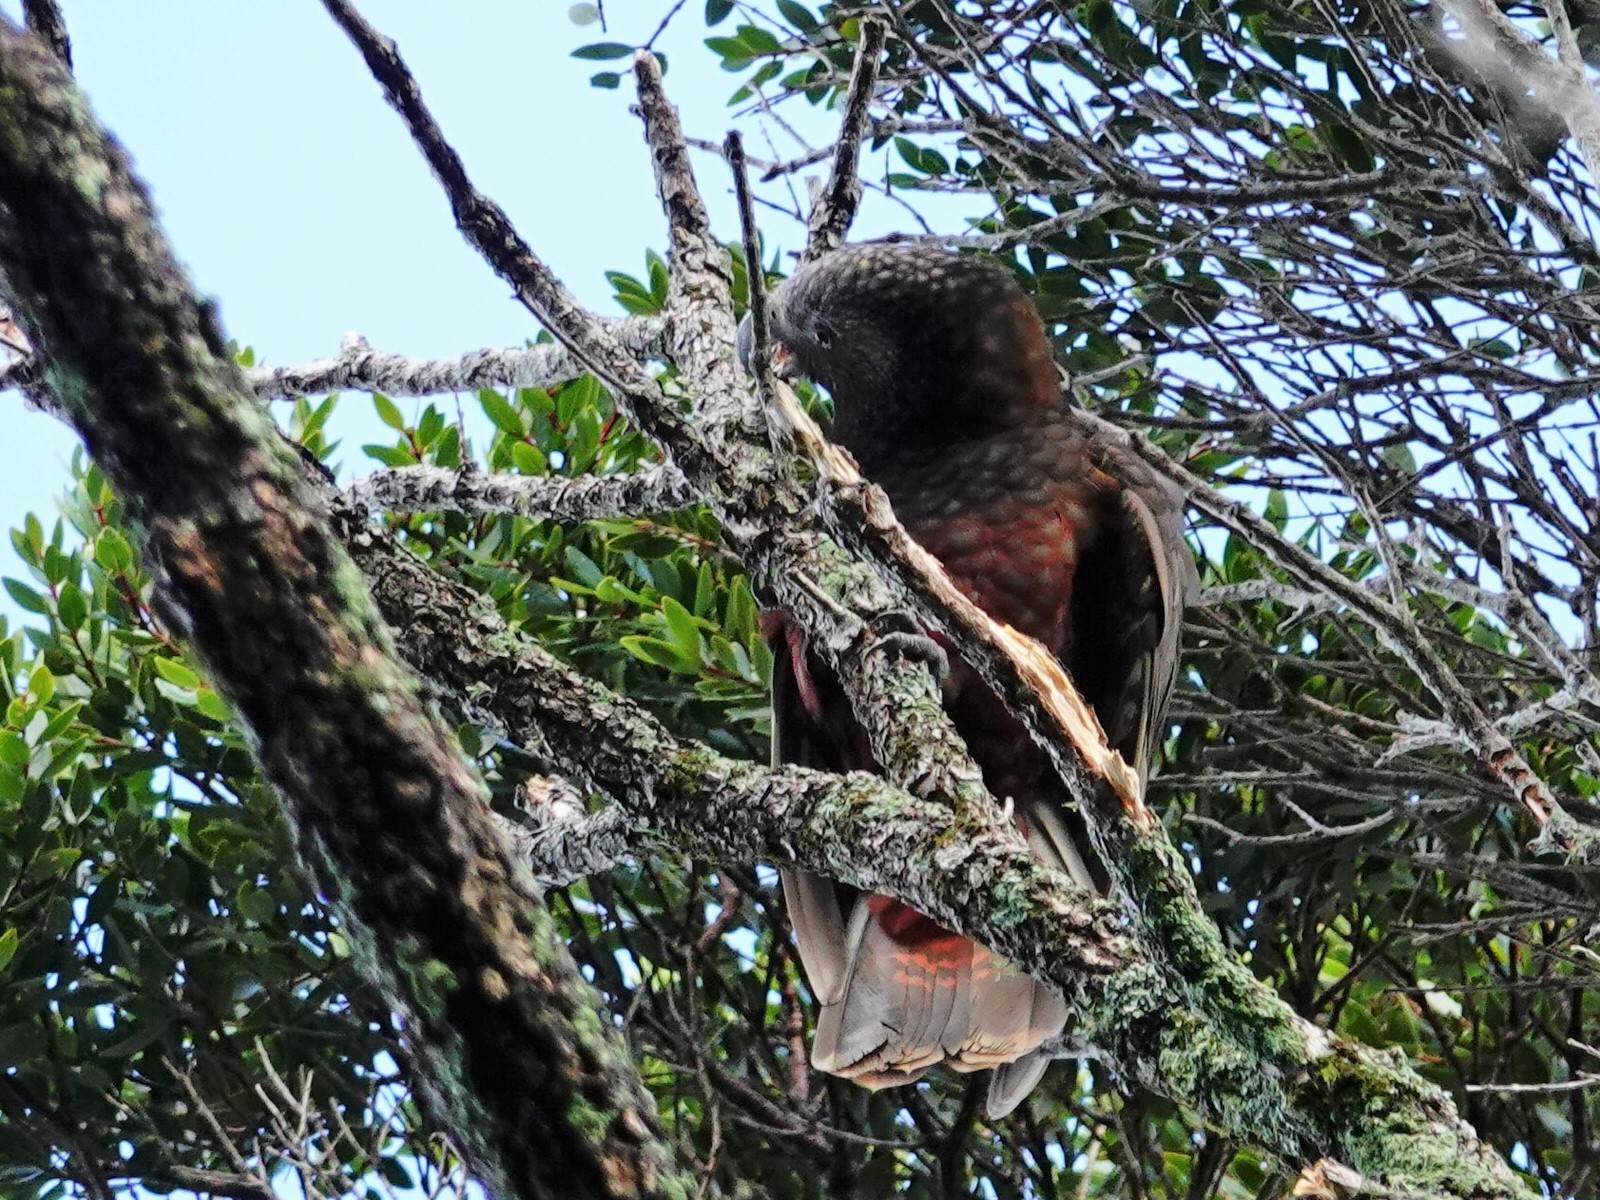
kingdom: Animalia
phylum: Chordata
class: Aves
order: Psittaciformes
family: Psittacidae
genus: Nestor
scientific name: Nestor meridionalis
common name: New zealand kaka
